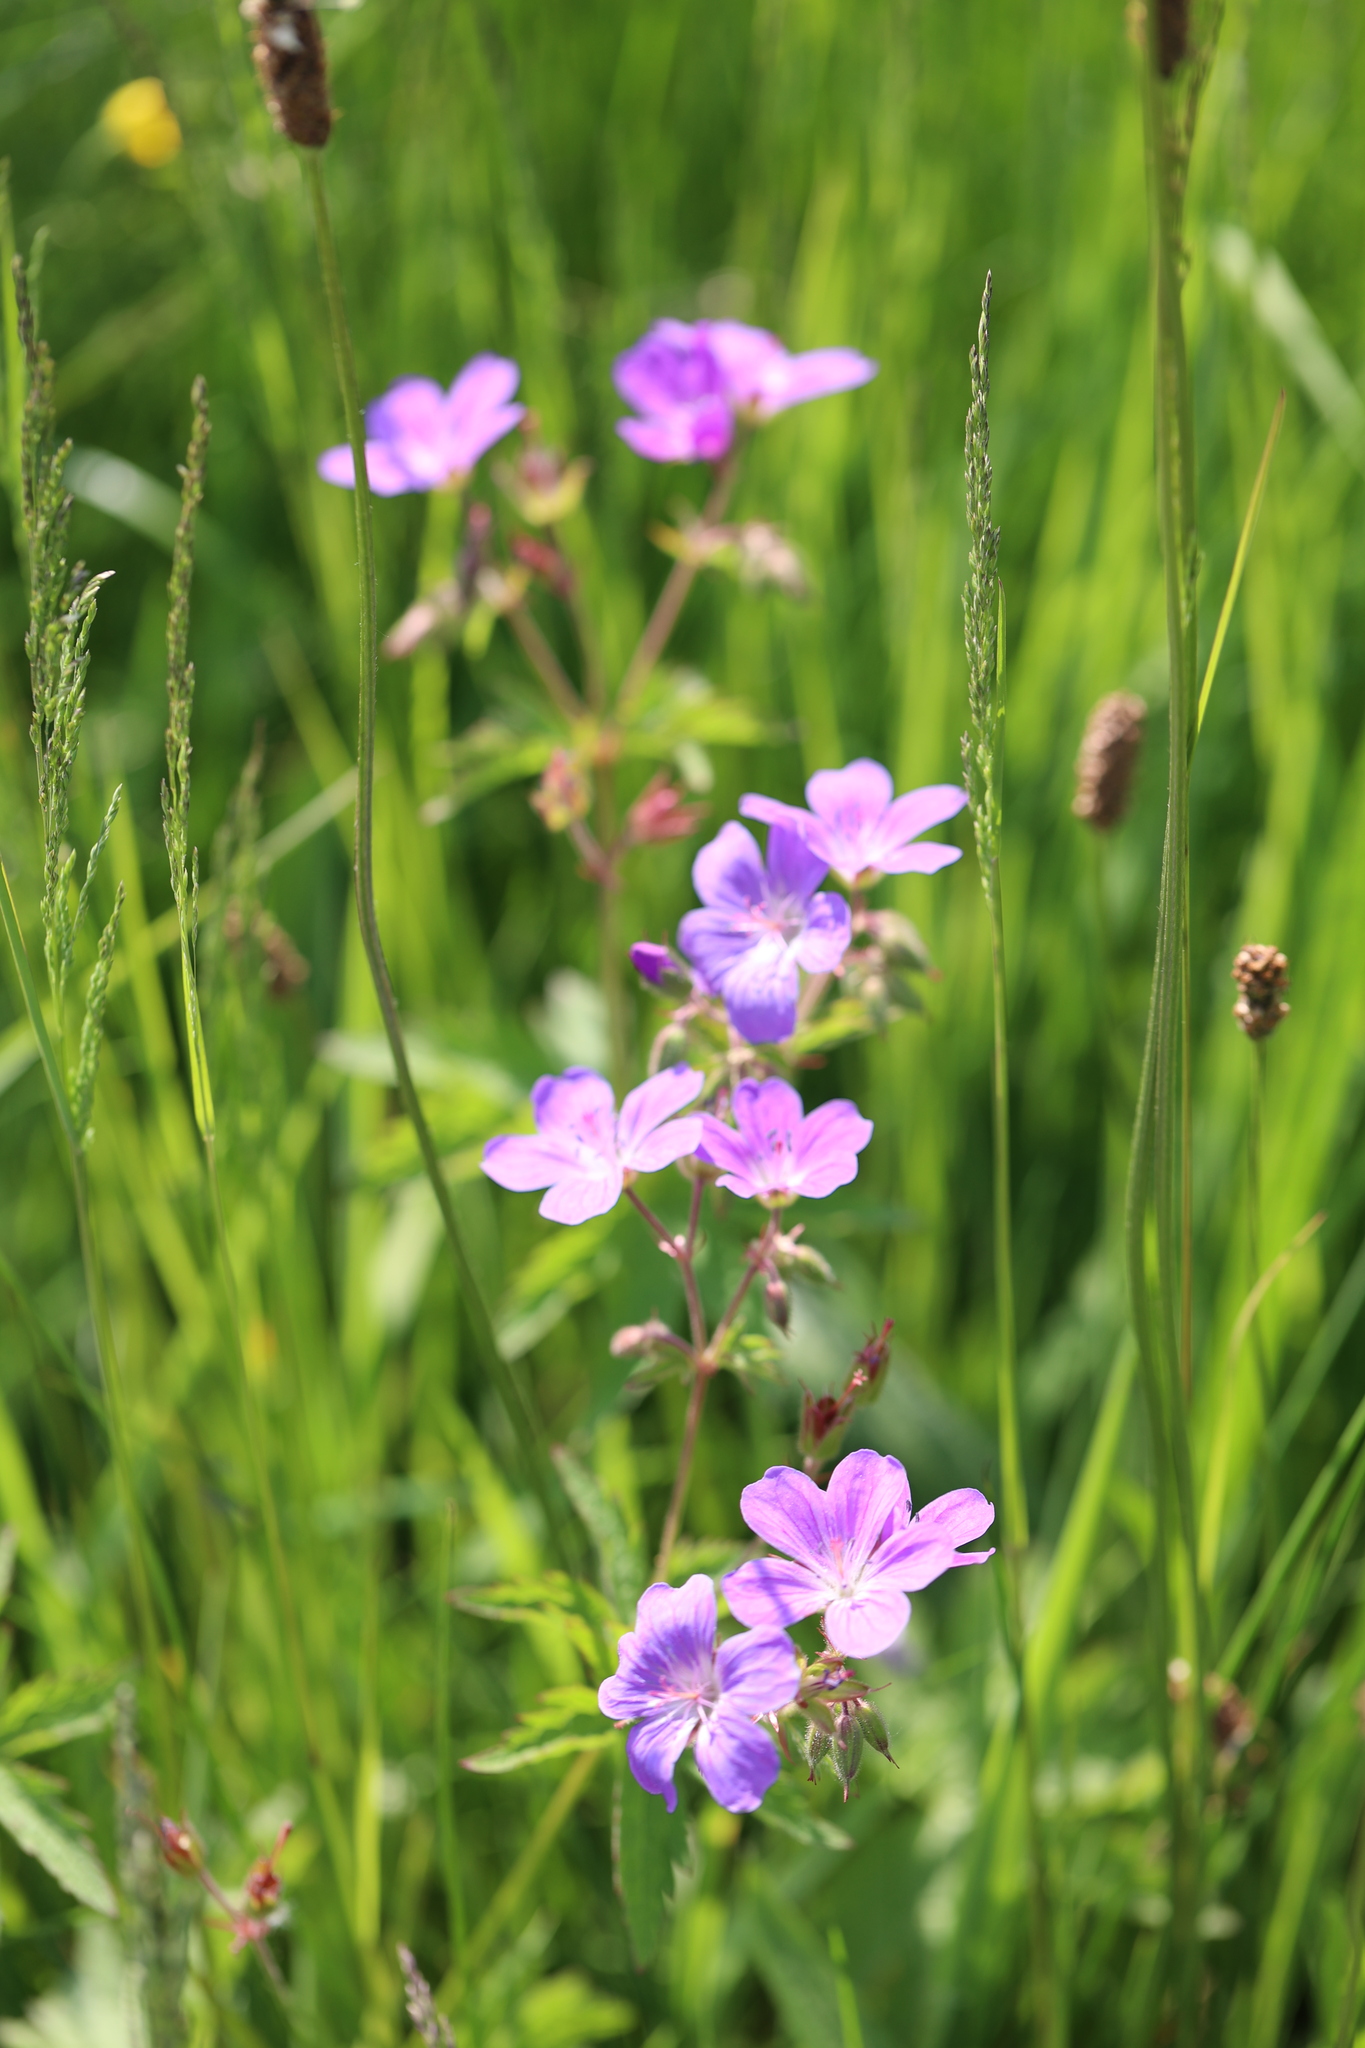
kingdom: Plantae
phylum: Tracheophyta
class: Magnoliopsida
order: Geraniales
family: Geraniaceae
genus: Geranium
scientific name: Geranium sylvaticum
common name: Wood crane's-bill
